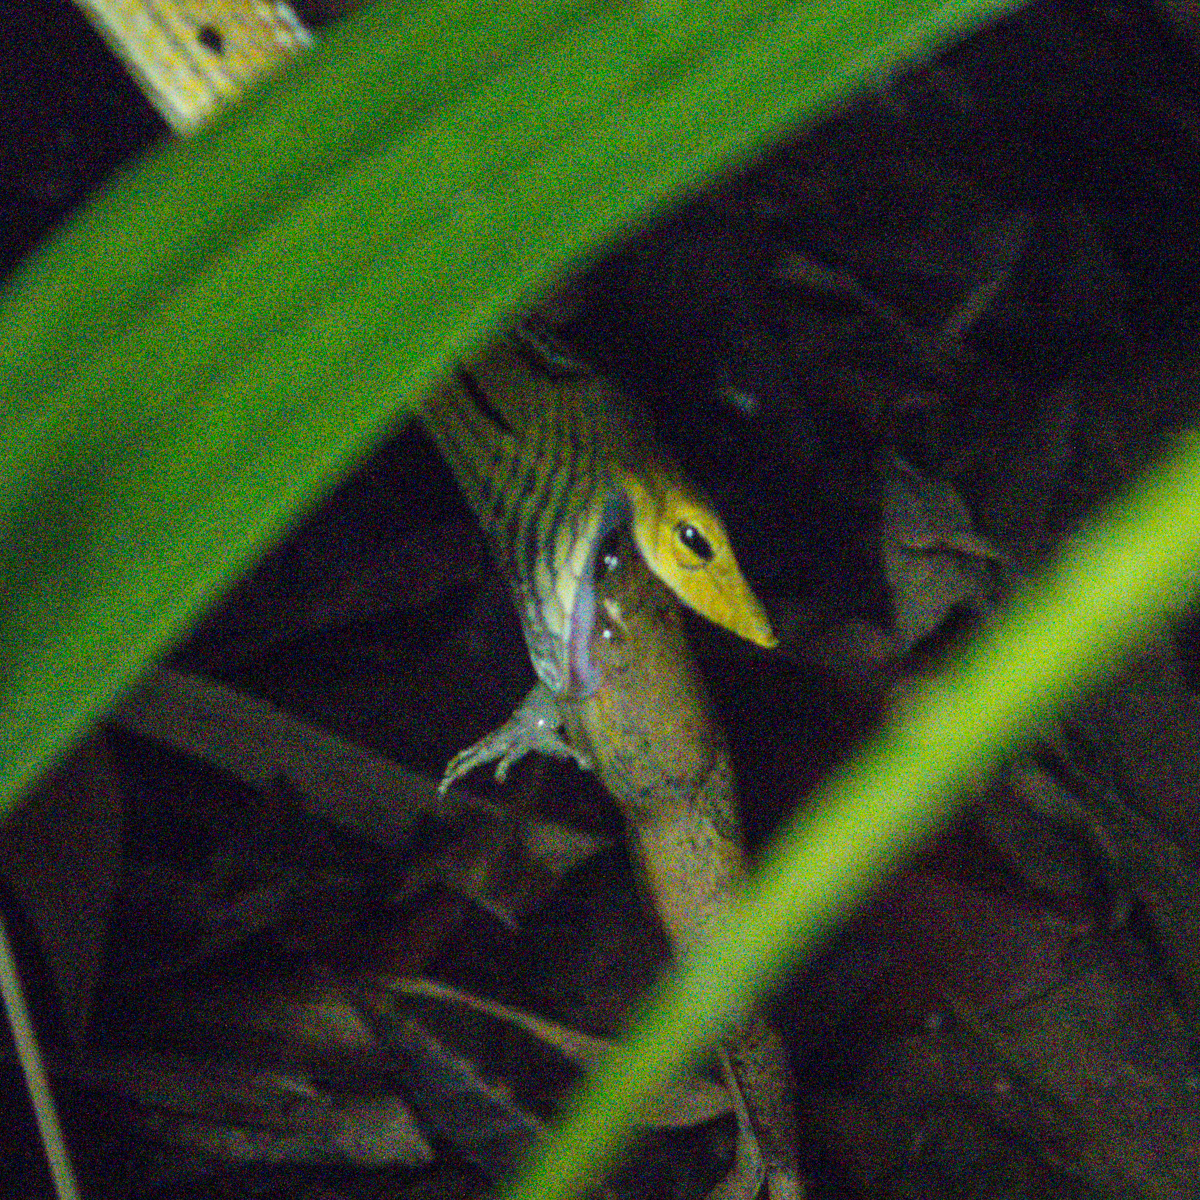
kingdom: Animalia
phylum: Chordata
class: Squamata
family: Colubridae
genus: Ahaetulla
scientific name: Ahaetulla prasina
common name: Oriental whip snake
